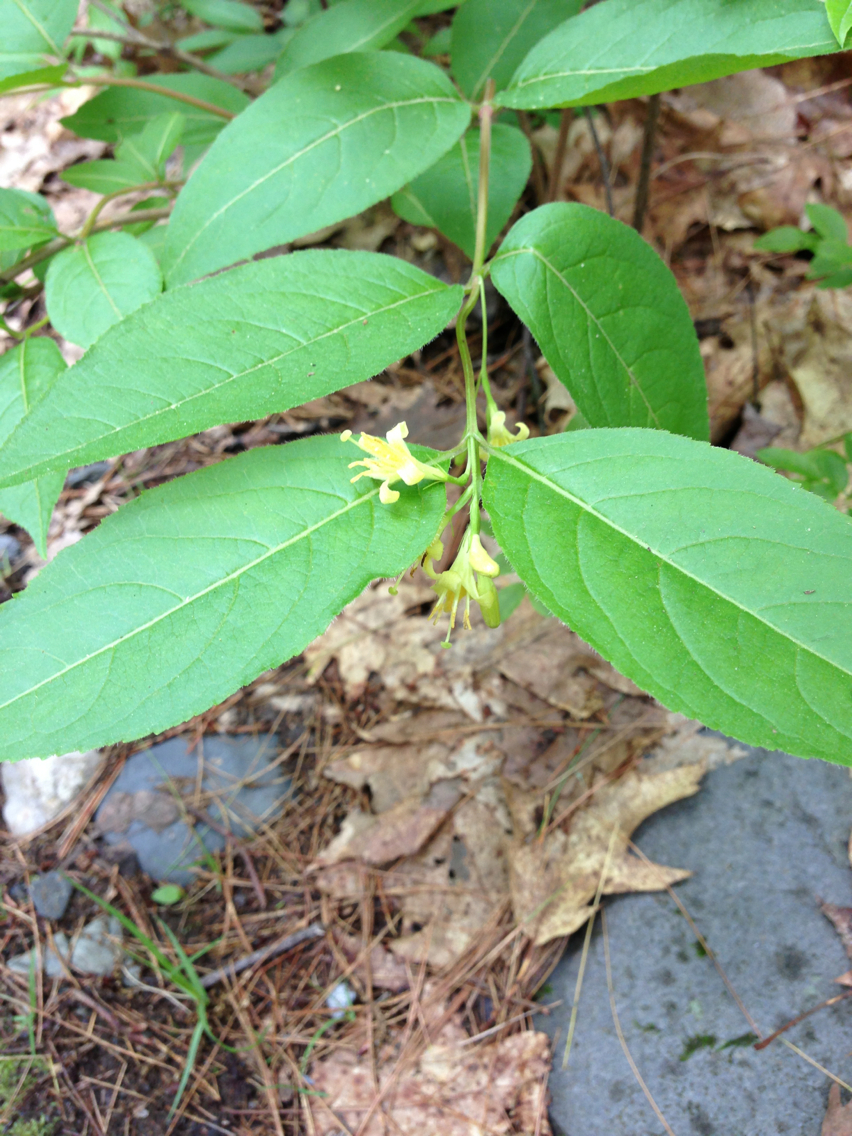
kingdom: Plantae
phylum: Tracheophyta
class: Magnoliopsida
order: Dipsacales
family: Caprifoliaceae
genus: Diervilla
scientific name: Diervilla lonicera
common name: Bush-honeysuckle
